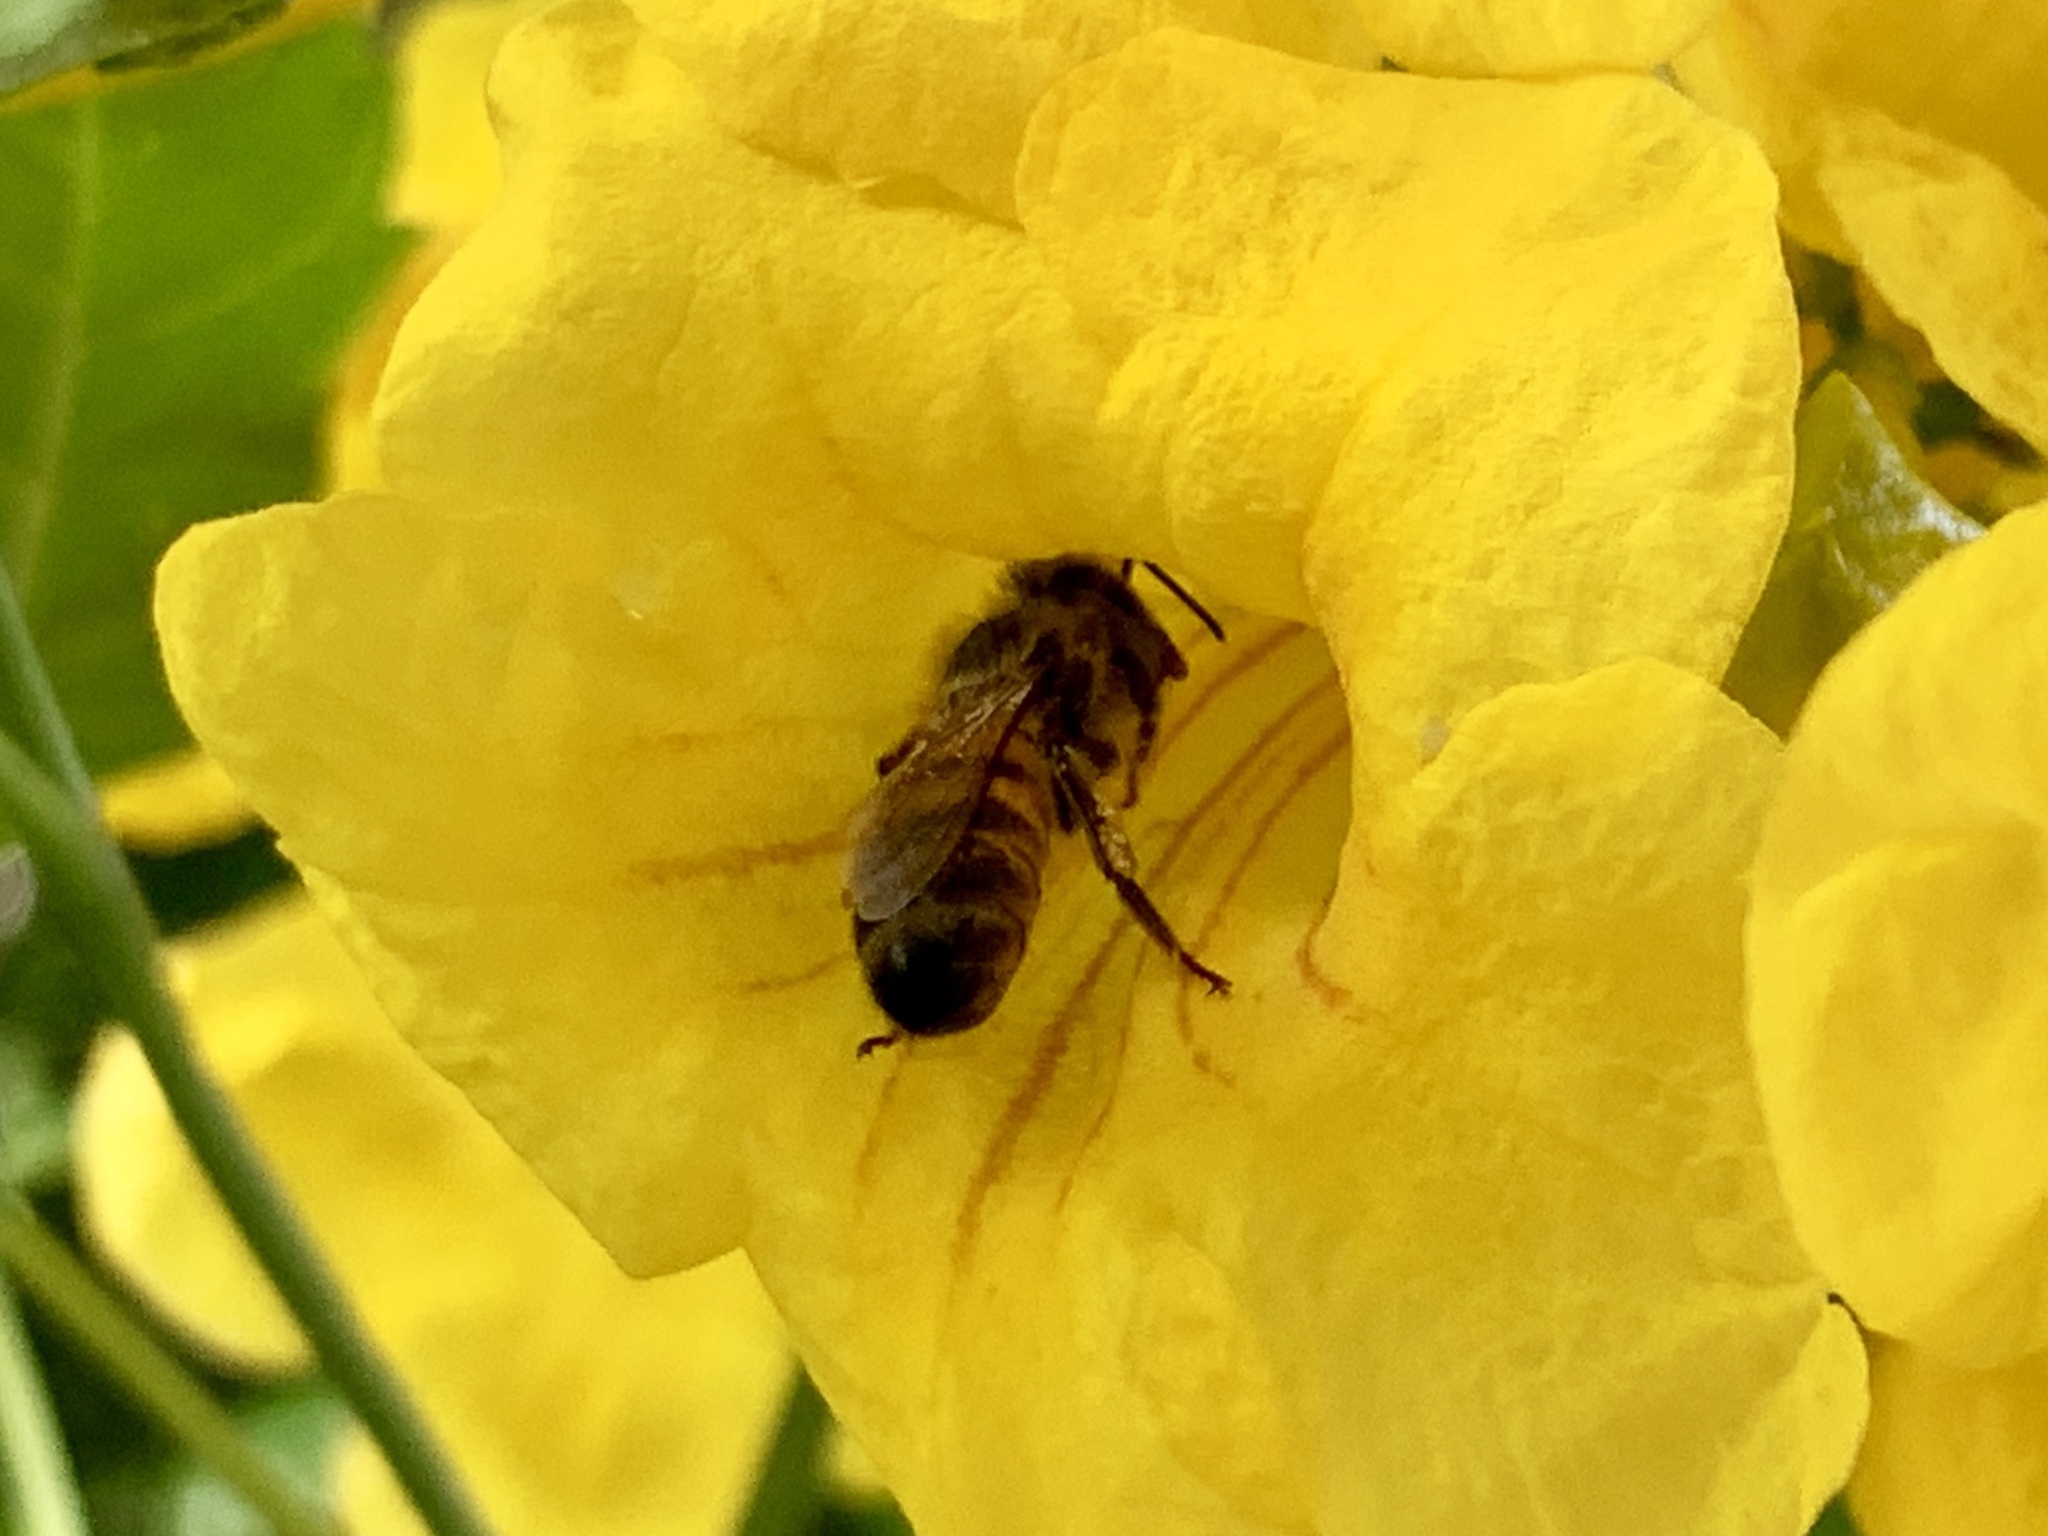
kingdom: Animalia
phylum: Arthropoda
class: Insecta
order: Hymenoptera
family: Apidae
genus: Apis
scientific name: Apis mellifera
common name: Honey bee
